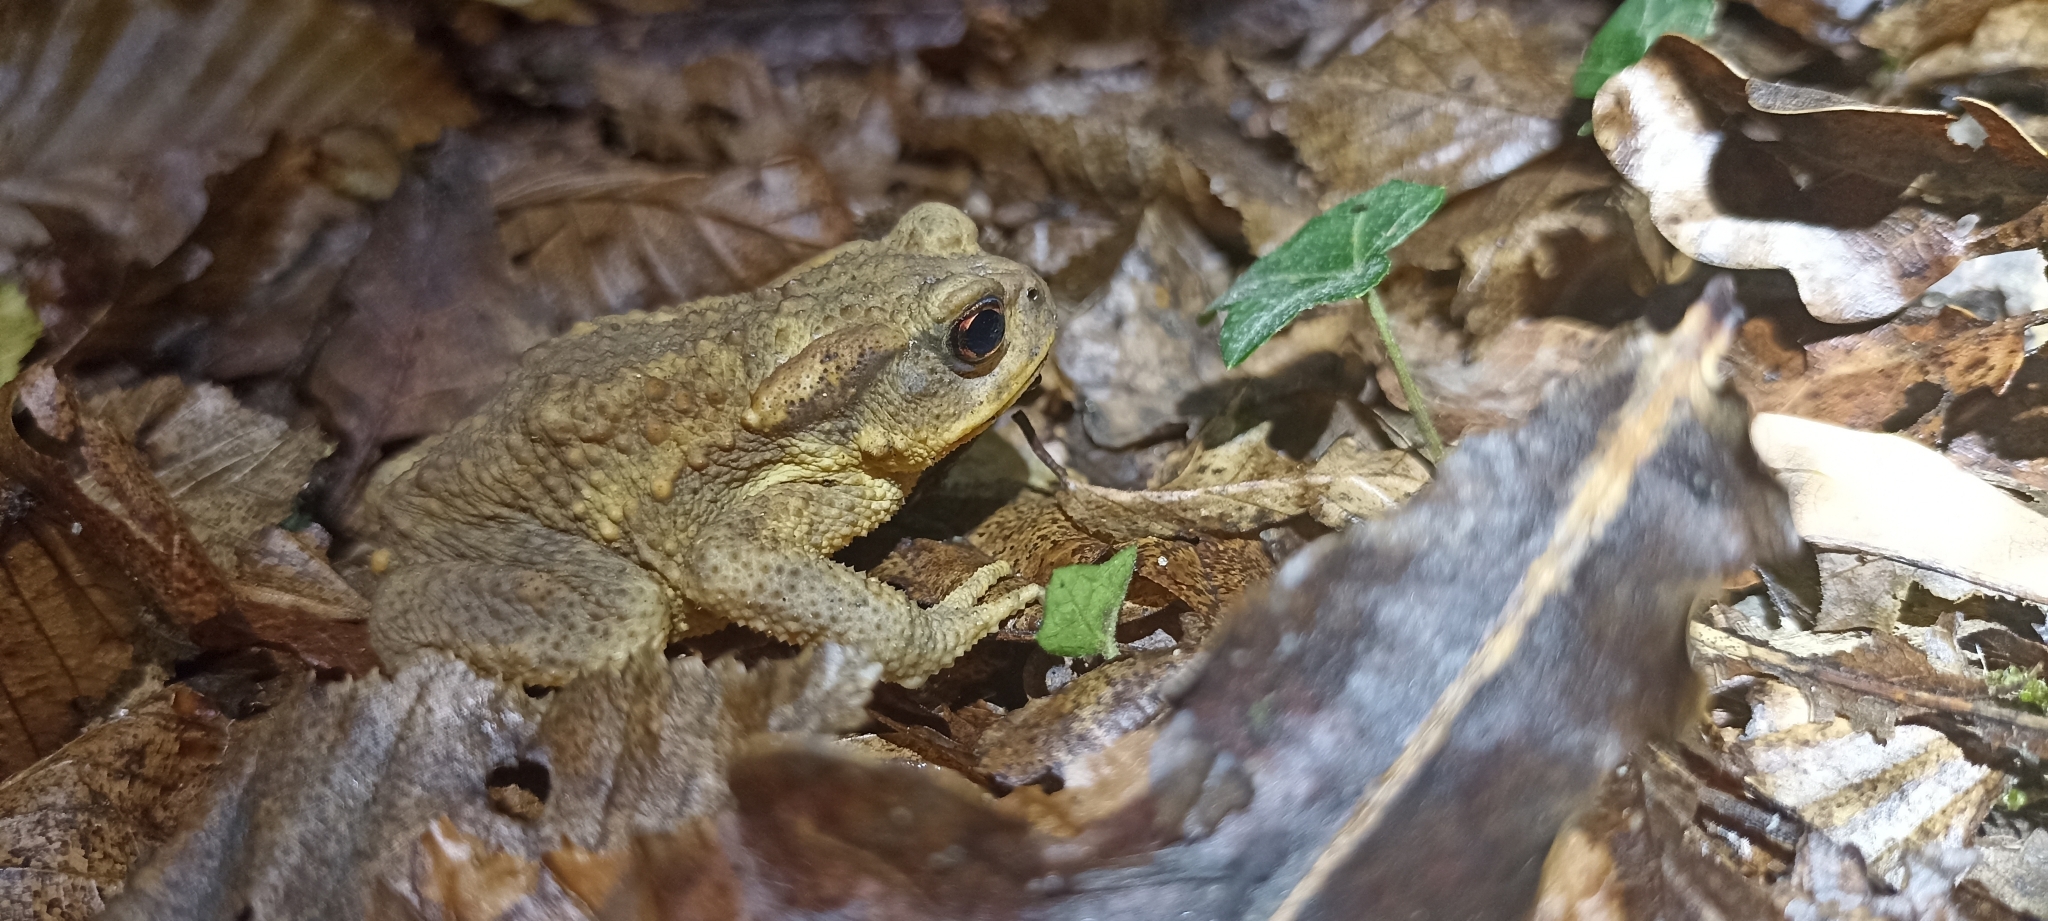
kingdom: Animalia
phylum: Chordata
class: Amphibia
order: Anura
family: Bufonidae
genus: Bufo
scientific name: Bufo spinosus
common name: Western common toad
